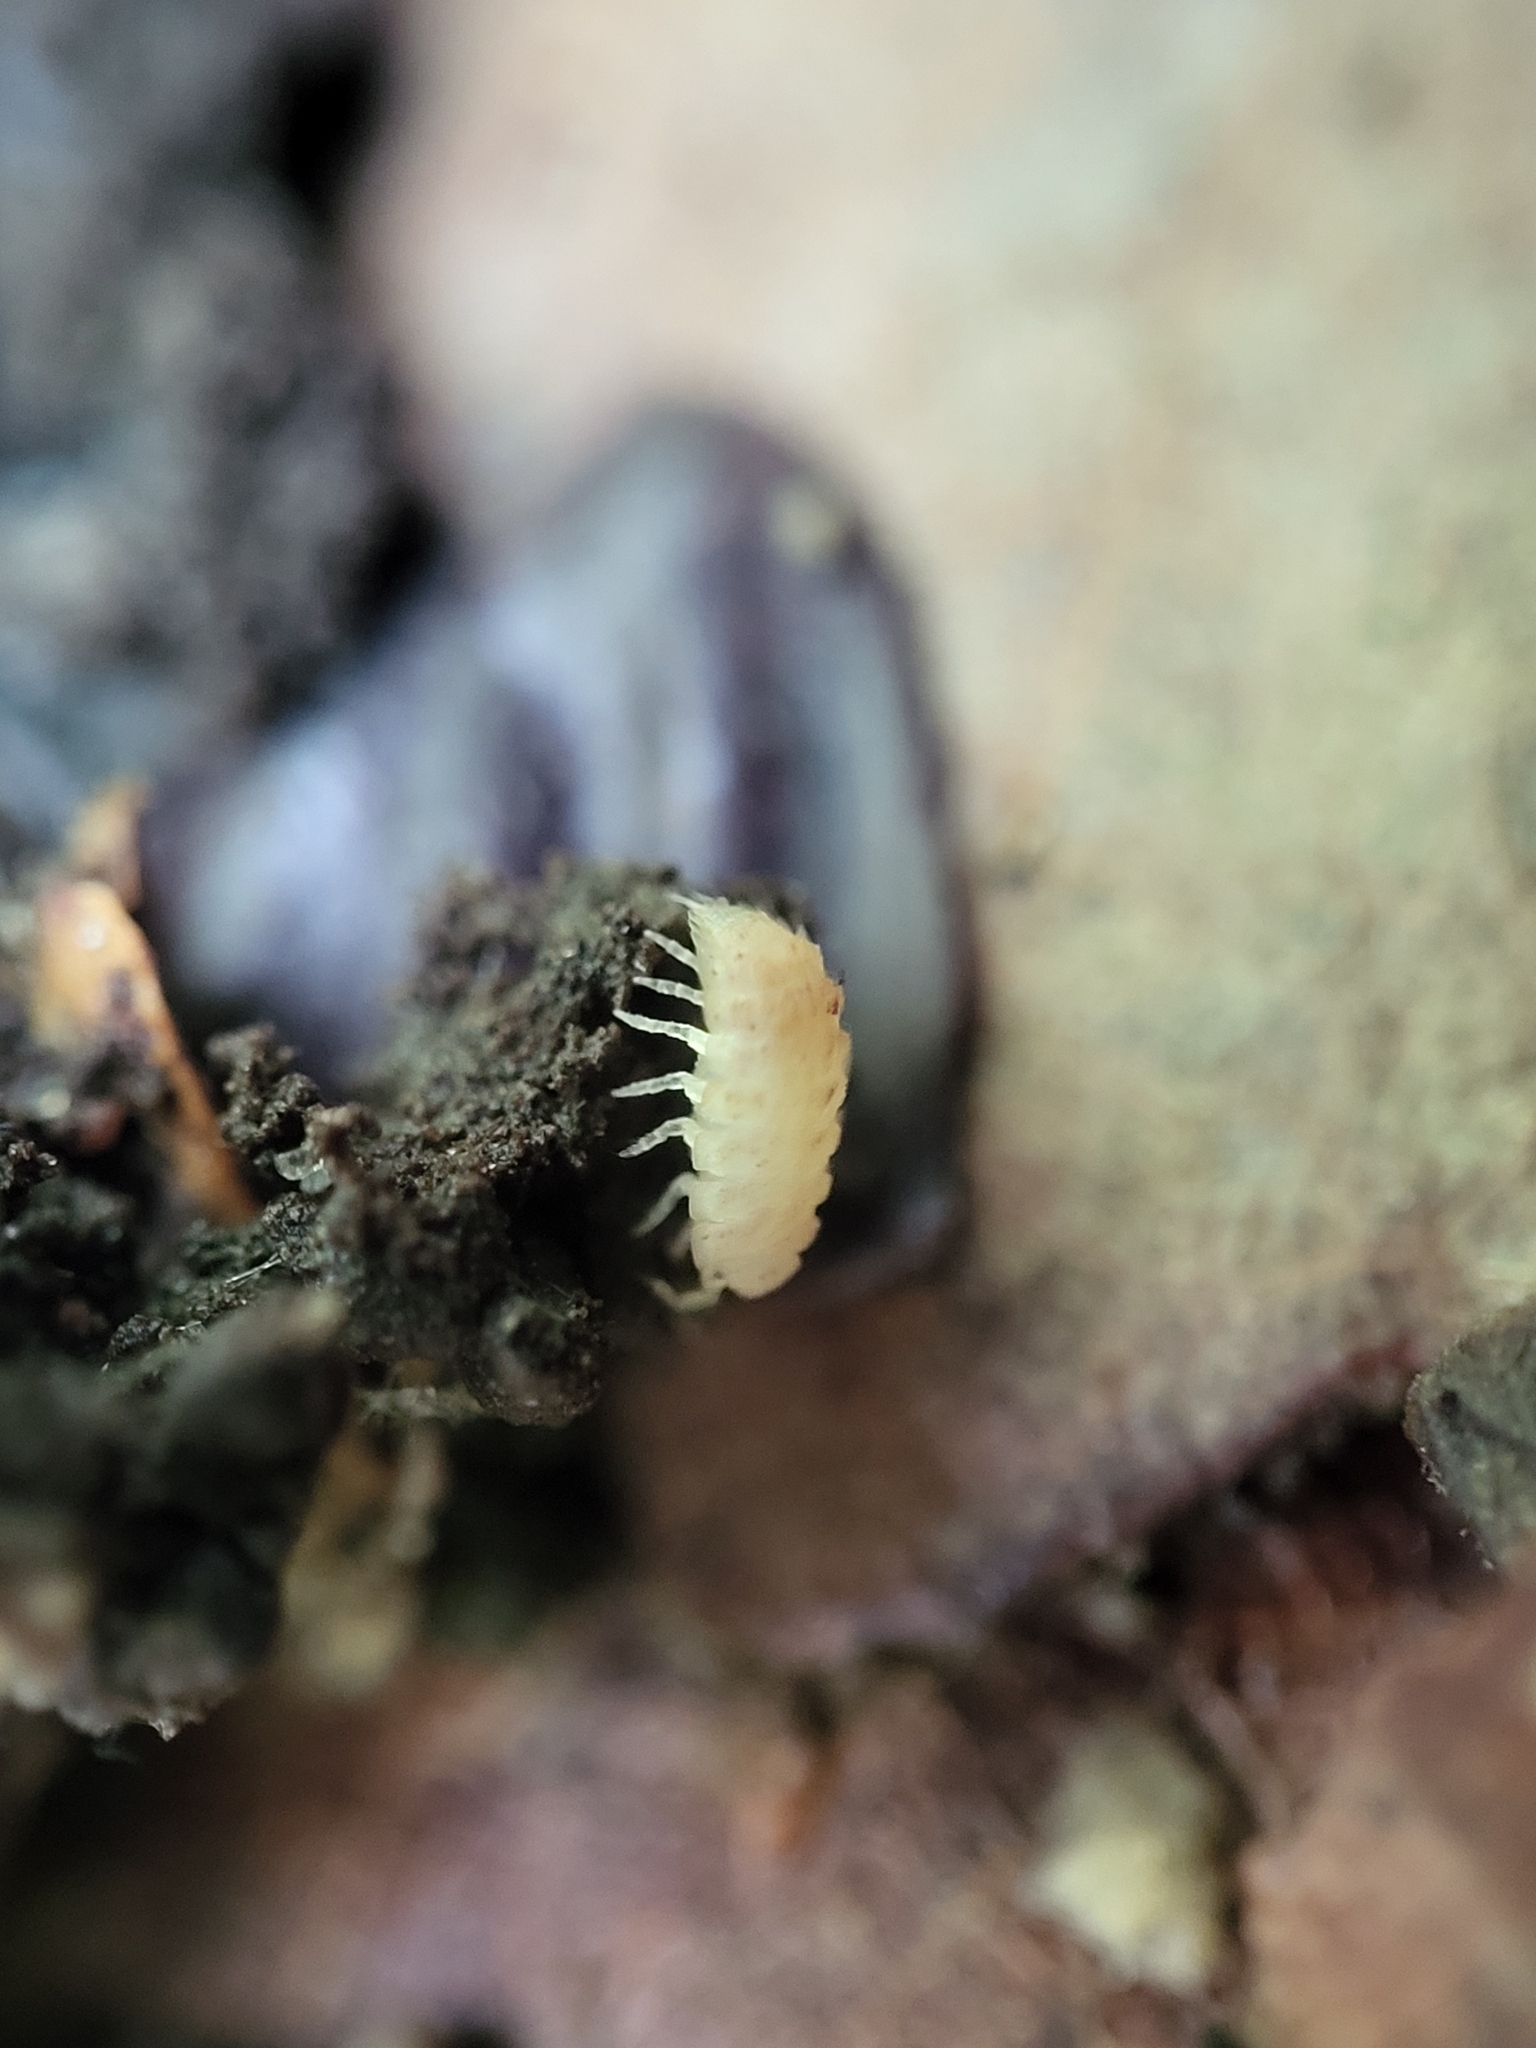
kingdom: Animalia
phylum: Arthropoda
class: Malacostraca
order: Isopoda
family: Trichoniscidae
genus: Haplophthalmus
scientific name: Haplophthalmus danicus
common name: Pillbug
